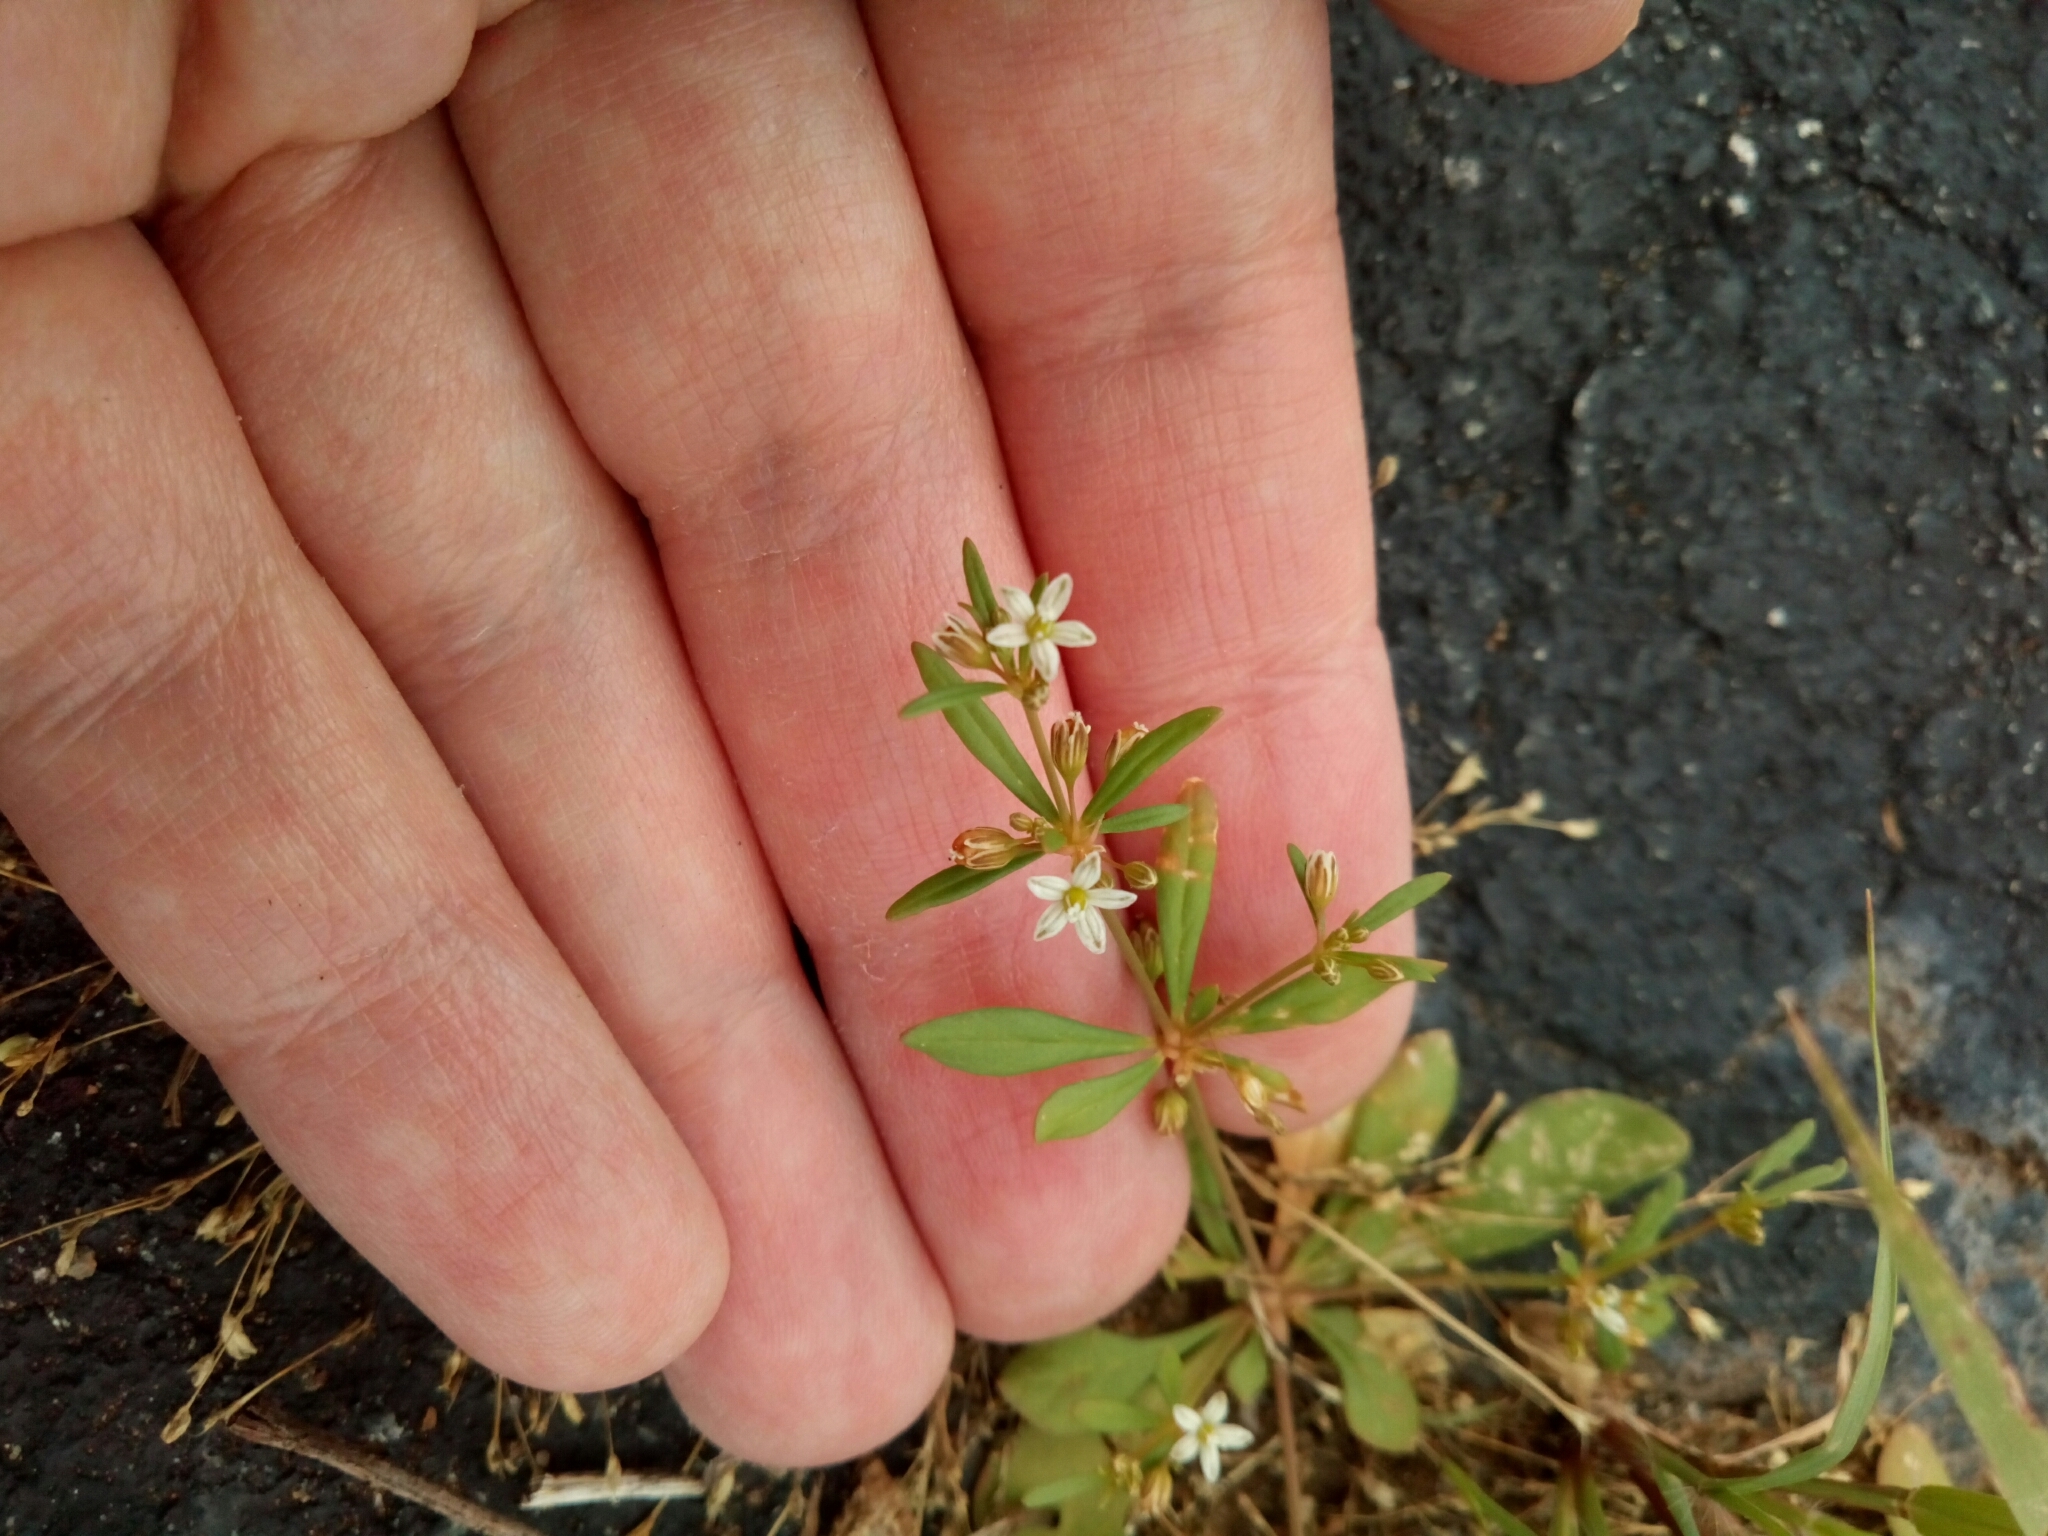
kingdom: Plantae
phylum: Tracheophyta
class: Magnoliopsida
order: Caryophyllales
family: Molluginaceae
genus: Mollugo
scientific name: Mollugo verticillata
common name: Green carpetweed
